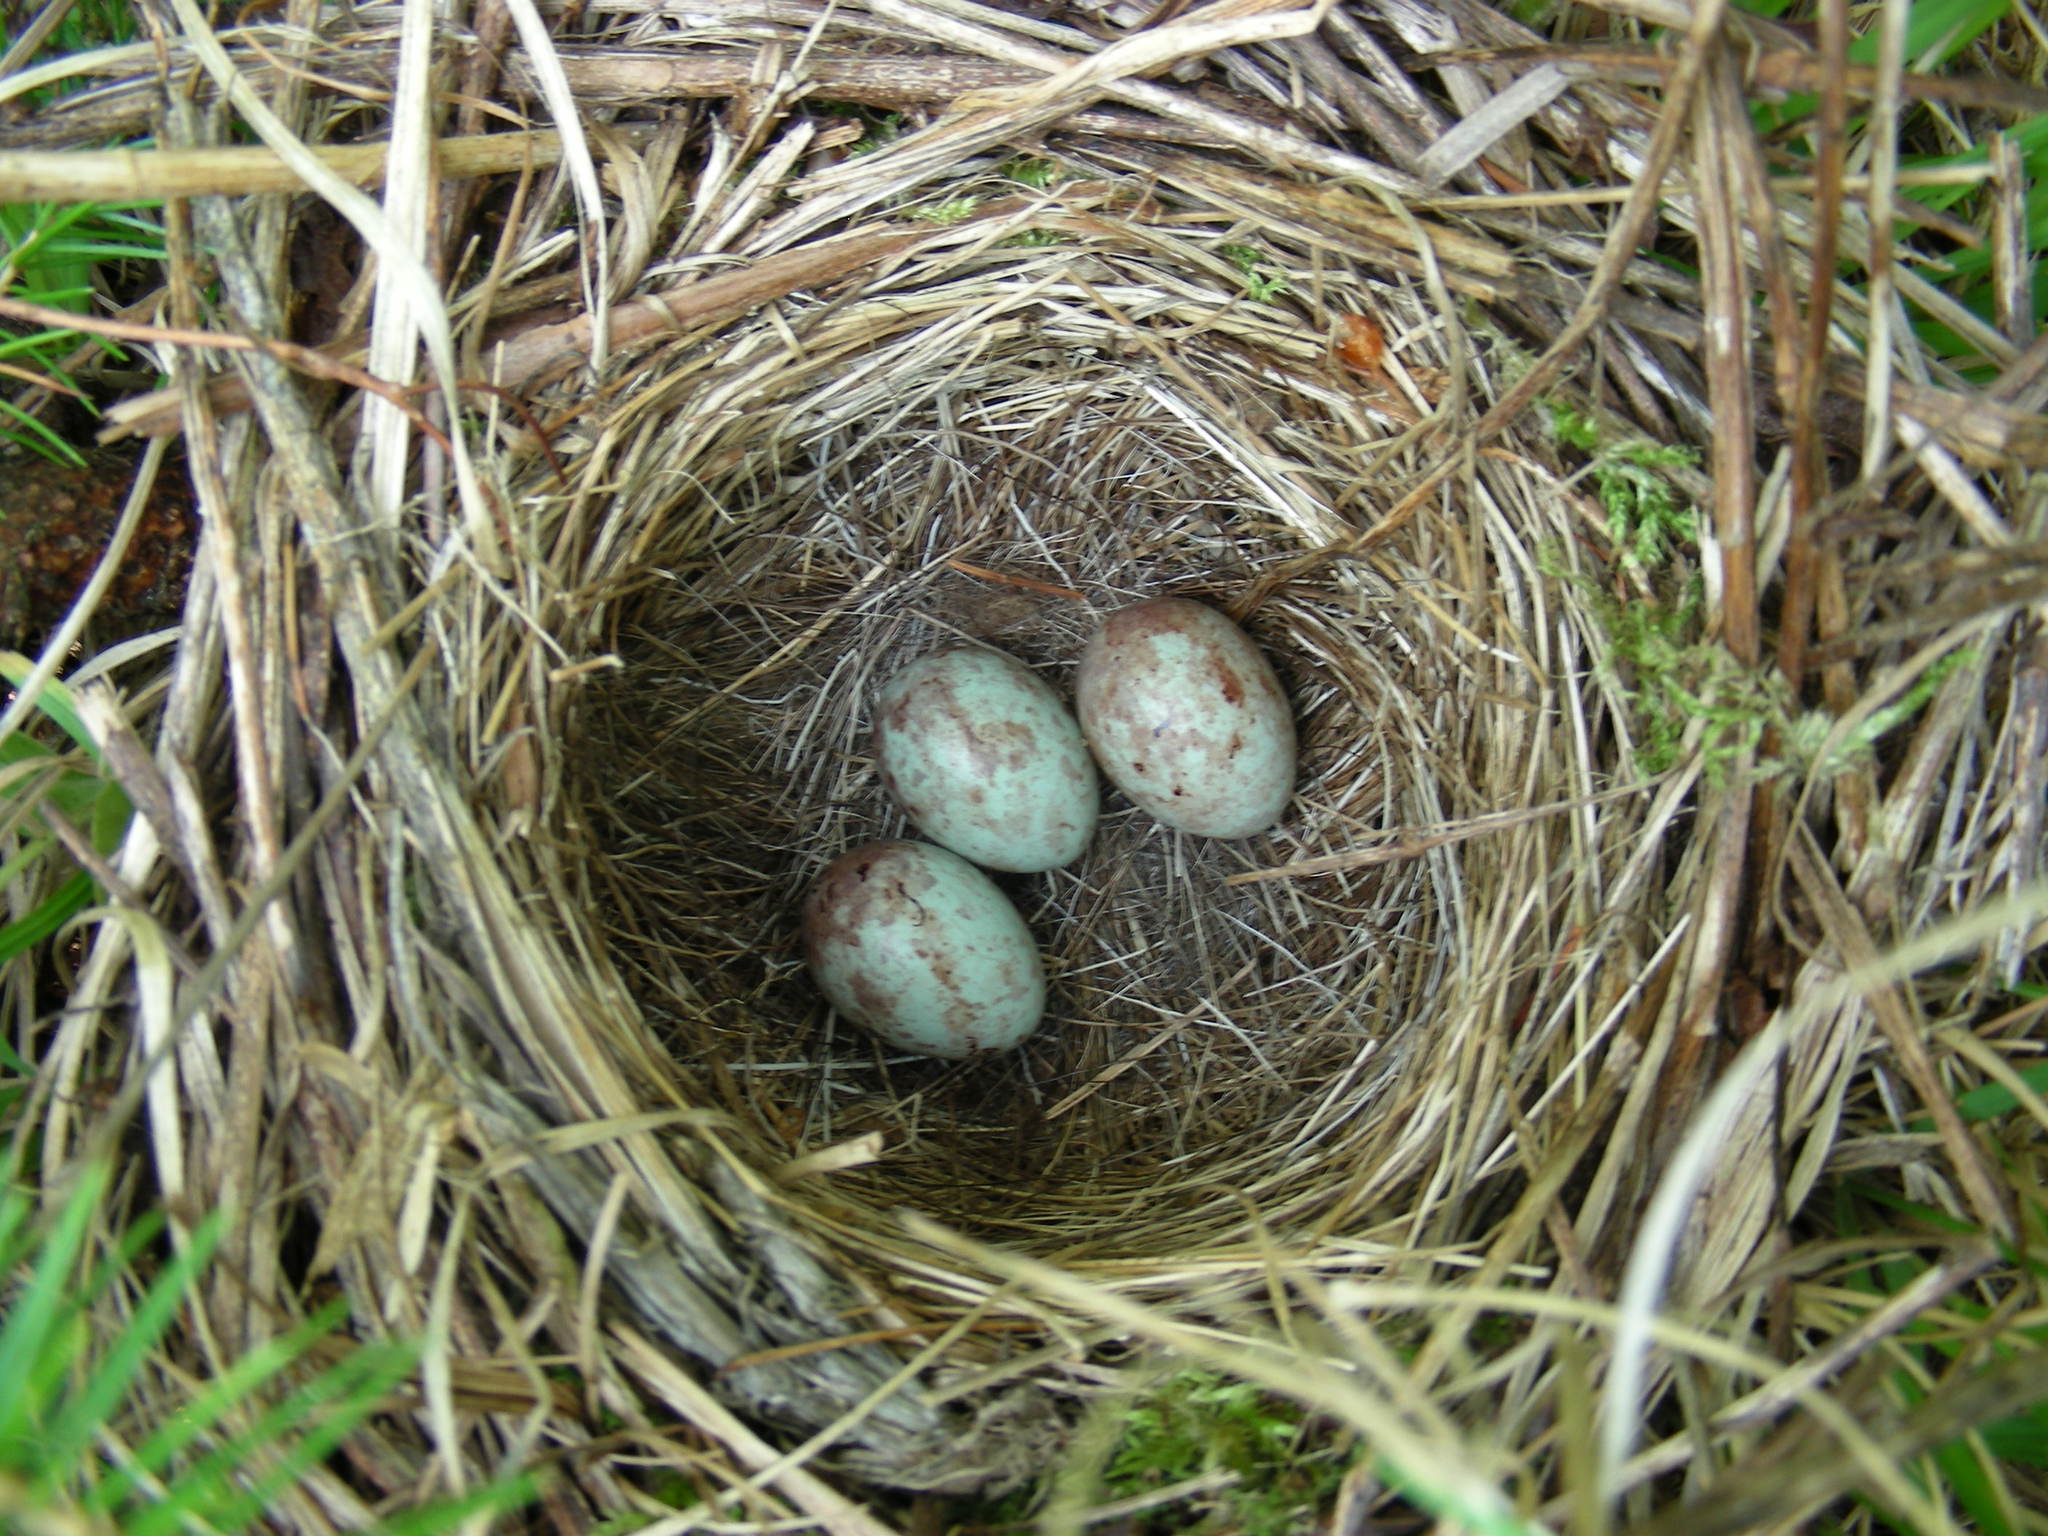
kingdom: Animalia
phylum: Chordata
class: Aves
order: Passeriformes
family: Passerellidae
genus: Zonotrichia
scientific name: Zonotrichia albicollis
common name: White-throated sparrow
